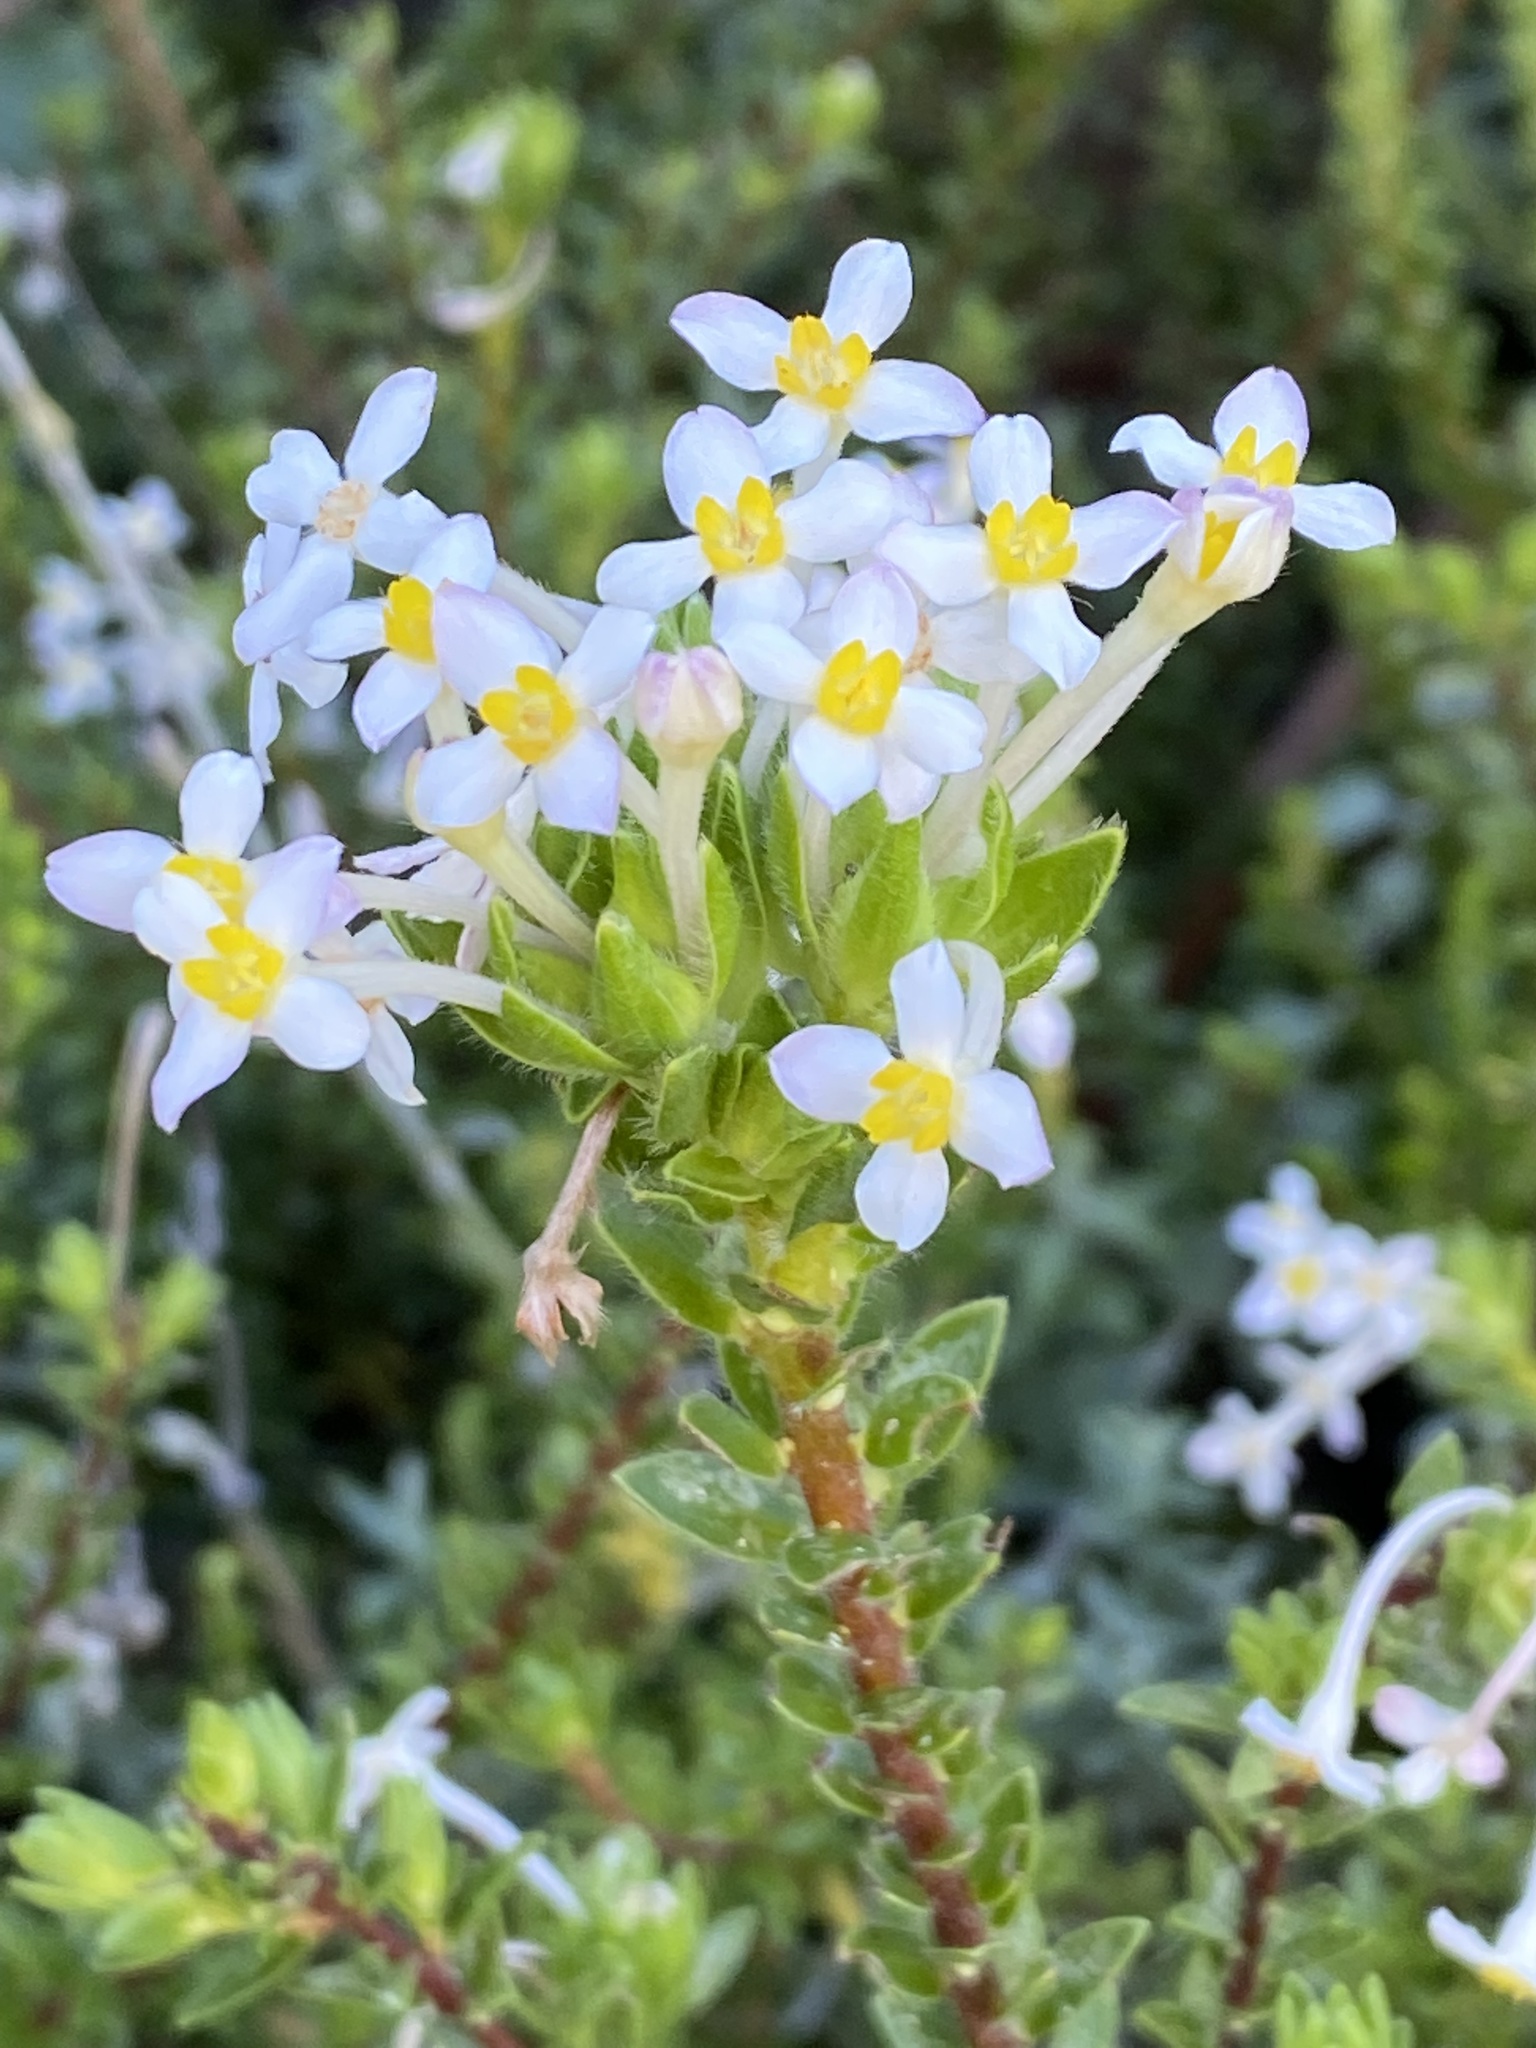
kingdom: Plantae
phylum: Tracheophyta
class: Magnoliopsida
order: Malvales
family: Thymelaeaceae
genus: Gnidia
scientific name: Gnidia tomentosa
